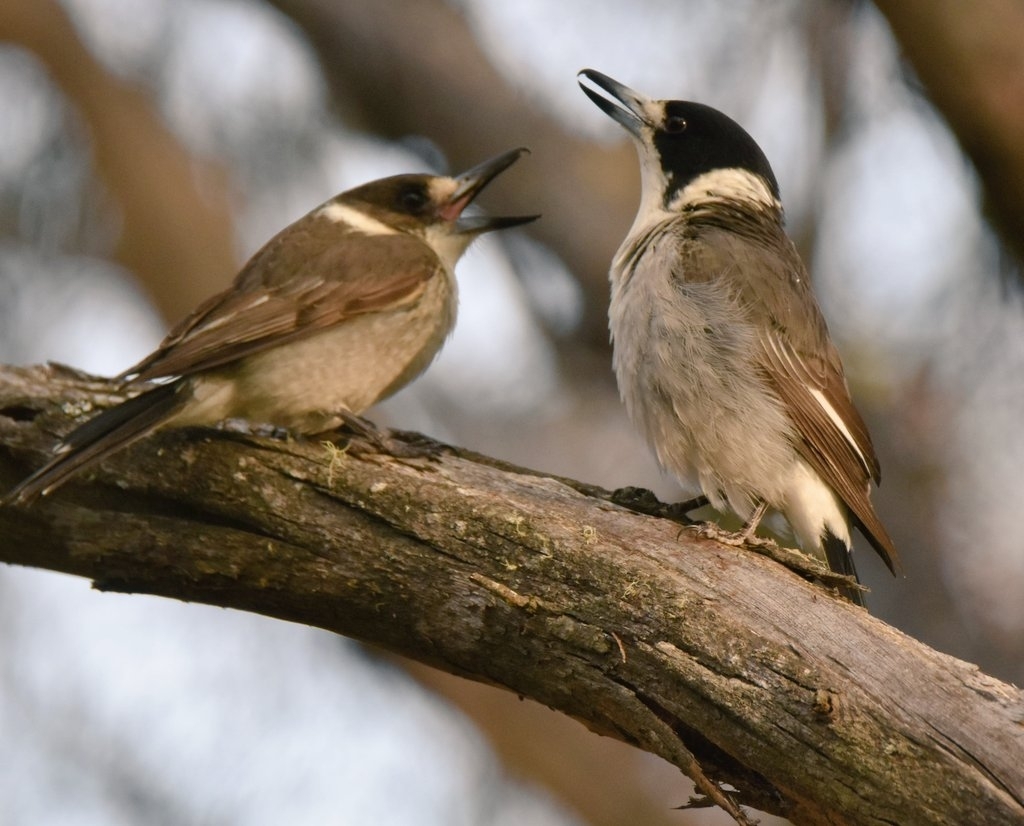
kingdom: Animalia
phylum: Chordata
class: Aves
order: Passeriformes
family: Cracticidae
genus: Cracticus
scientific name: Cracticus torquatus
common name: Grey butcherbird
